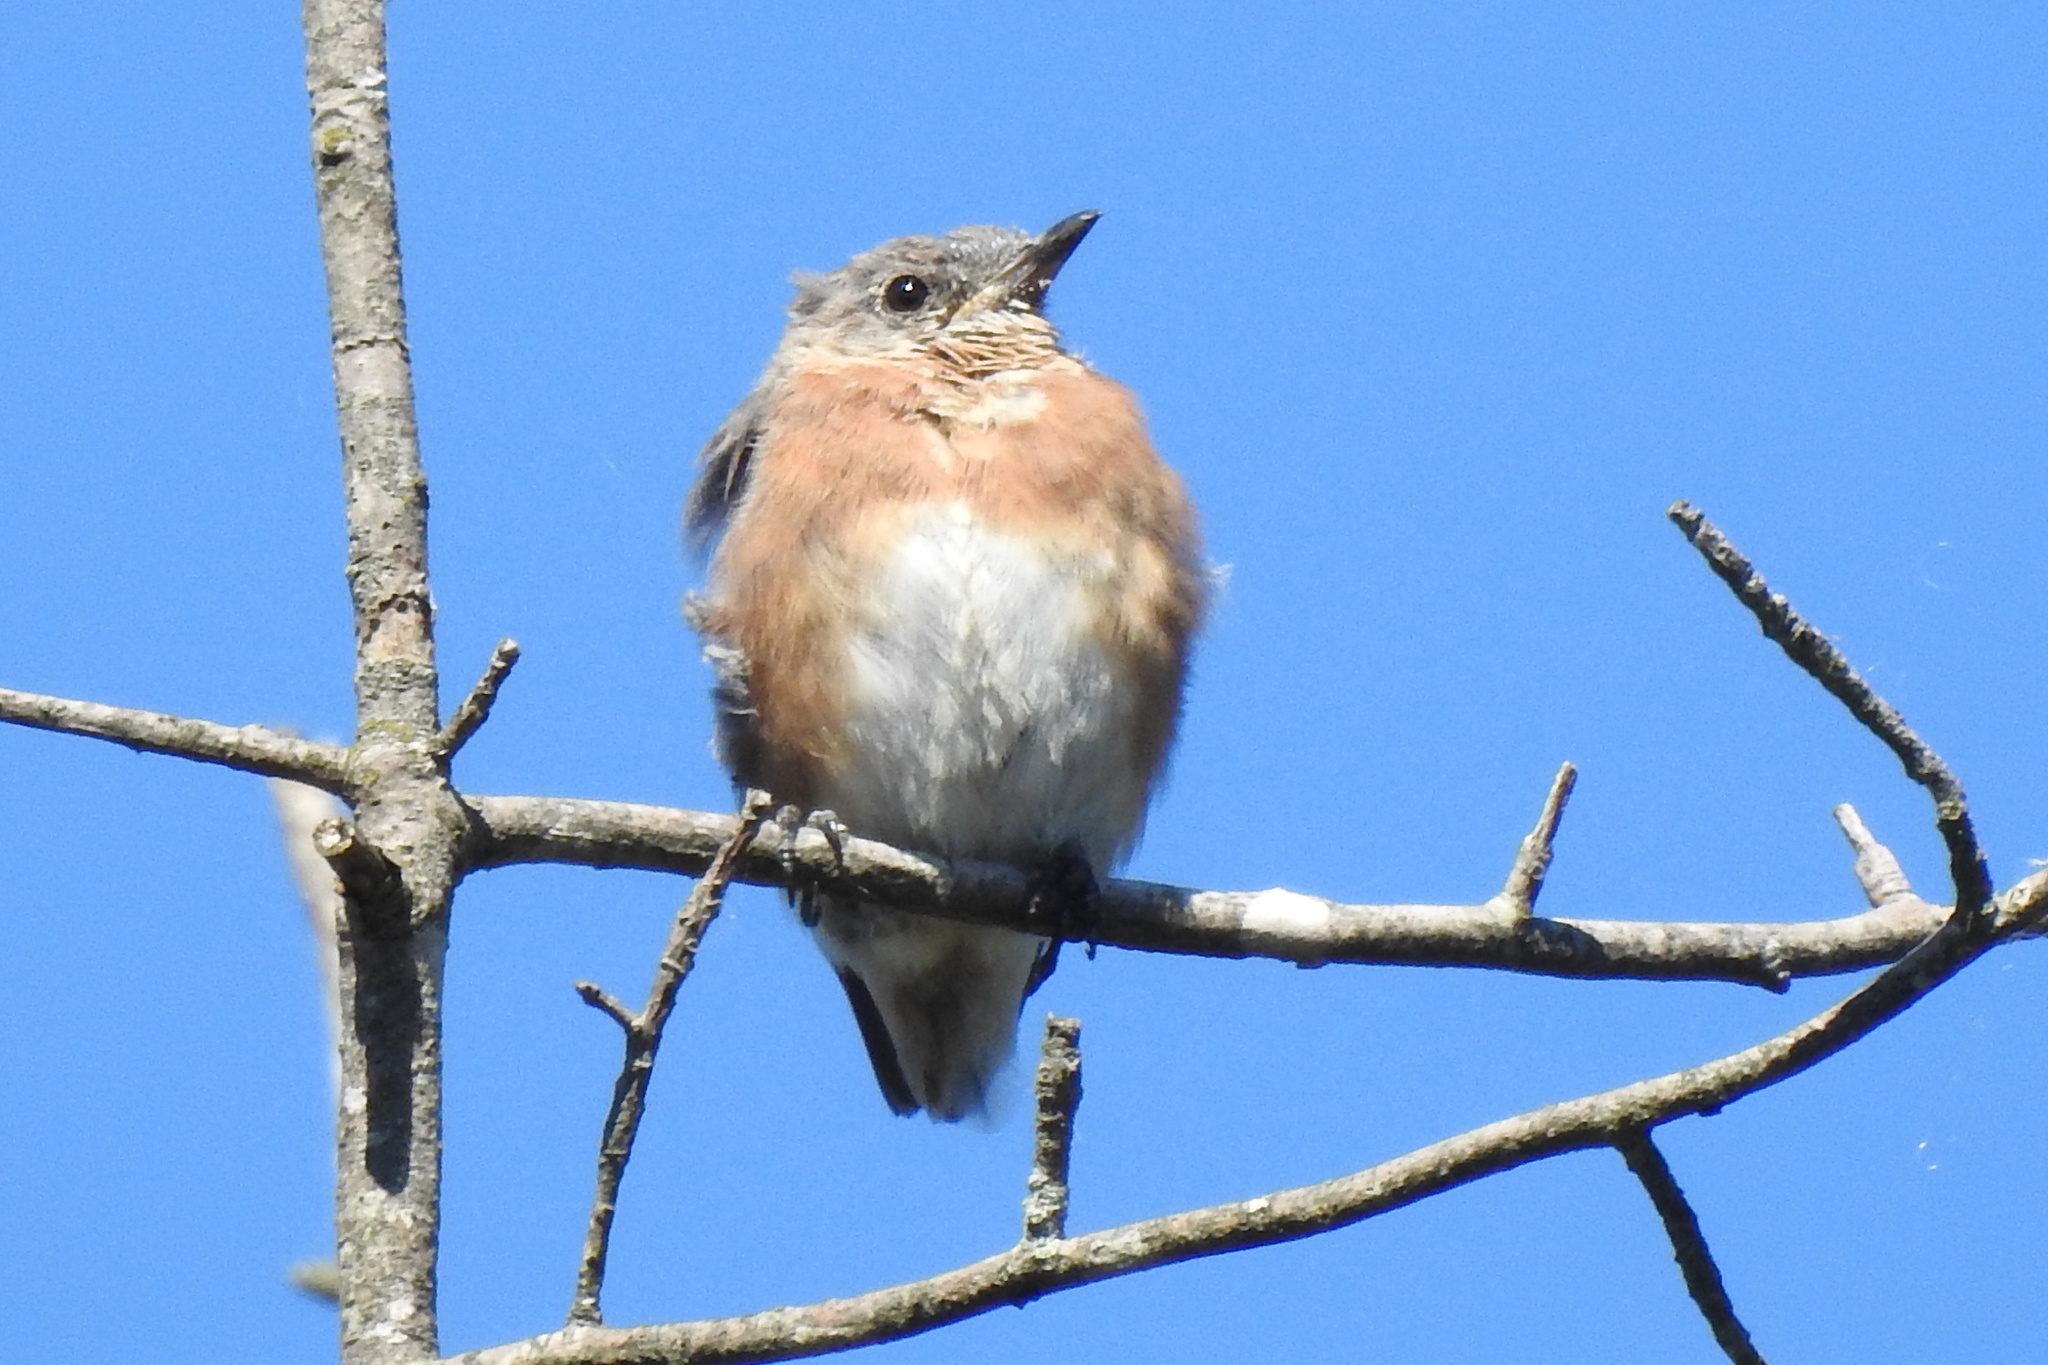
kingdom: Animalia
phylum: Chordata
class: Aves
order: Passeriformes
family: Turdidae
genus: Sialia
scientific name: Sialia sialis
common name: Eastern bluebird
